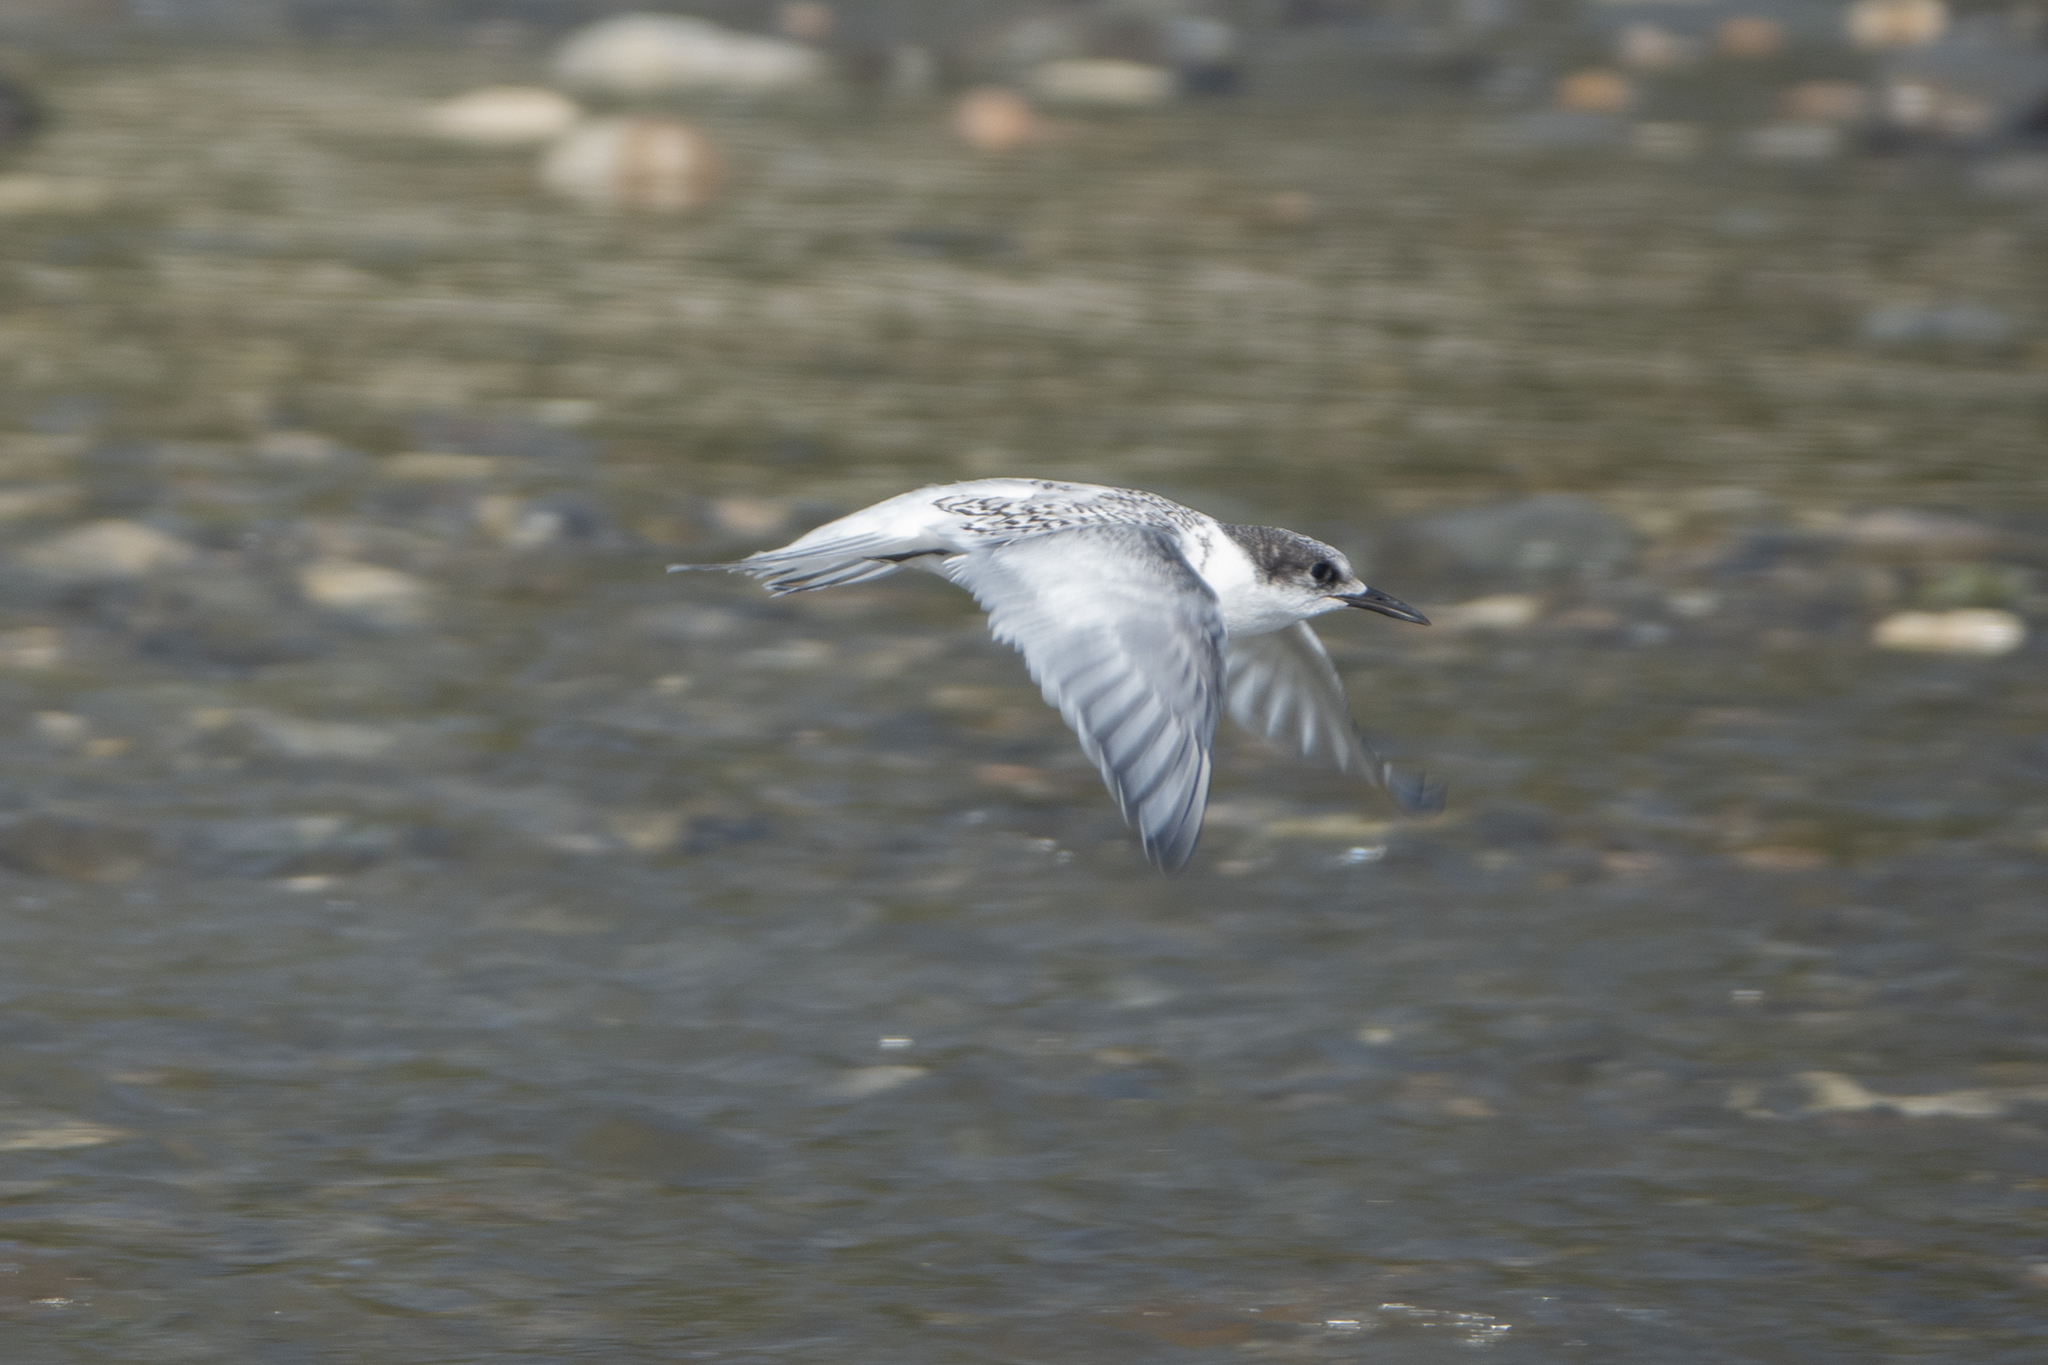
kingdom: Animalia
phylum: Chordata
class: Aves
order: Charadriiformes
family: Laridae
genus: Sterna
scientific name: Sterna striata
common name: White-fronted tern
